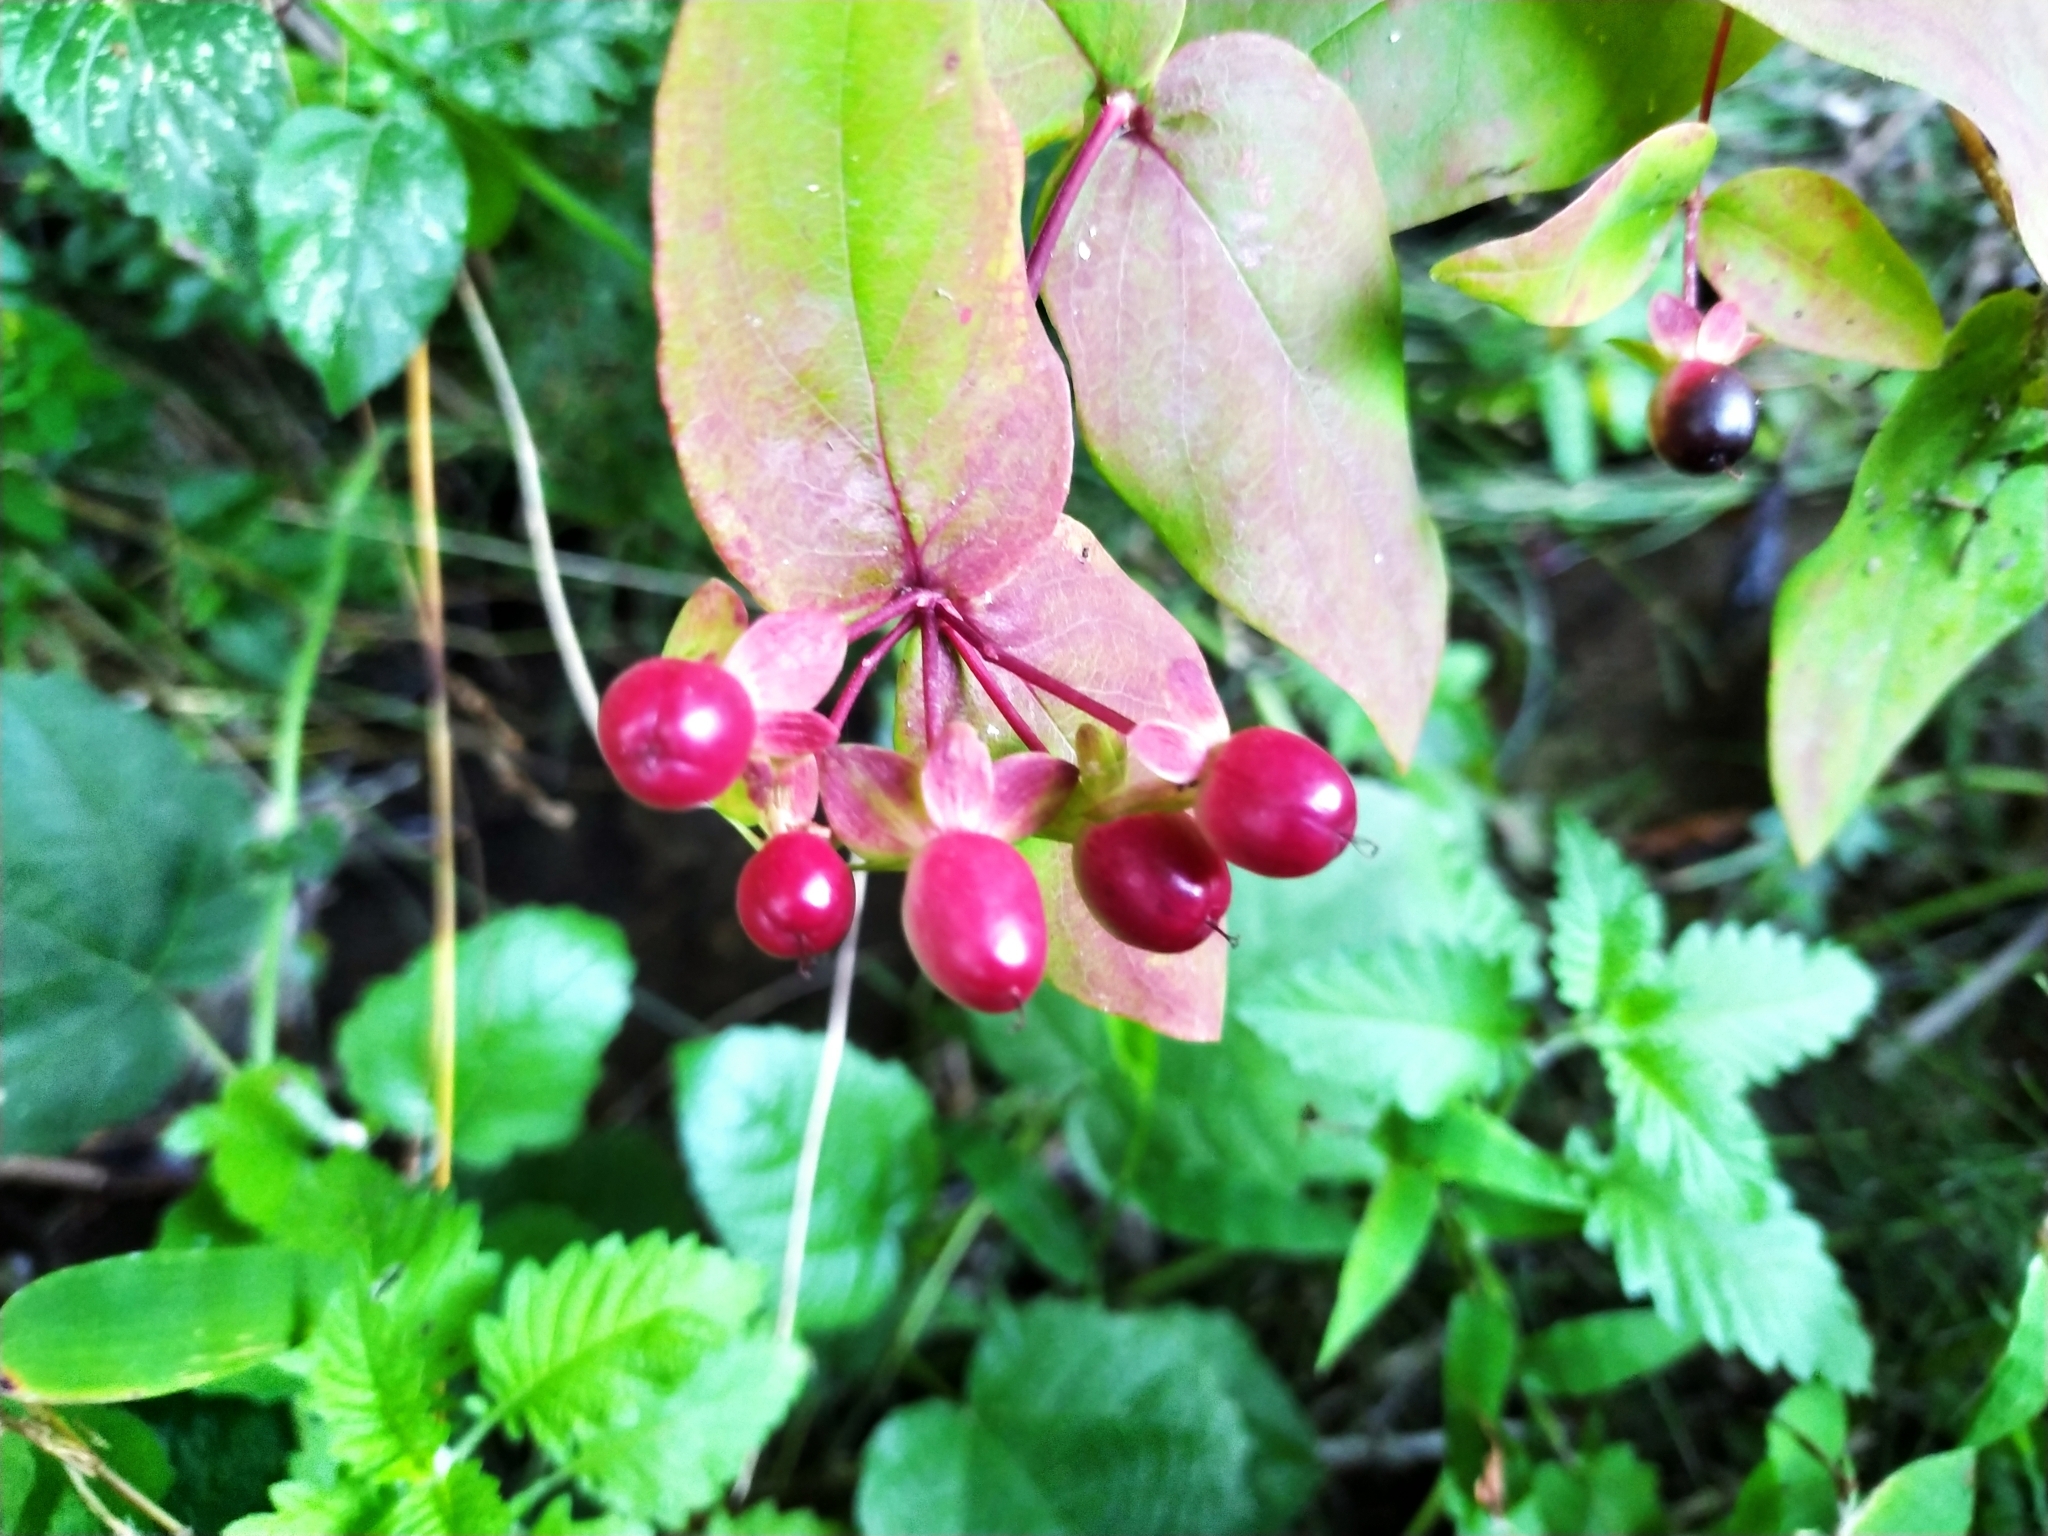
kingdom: Plantae
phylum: Tracheophyta
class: Magnoliopsida
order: Malpighiales
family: Hypericaceae
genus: Hypericum
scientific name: Hypericum androsaemum
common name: Sweet-amber
